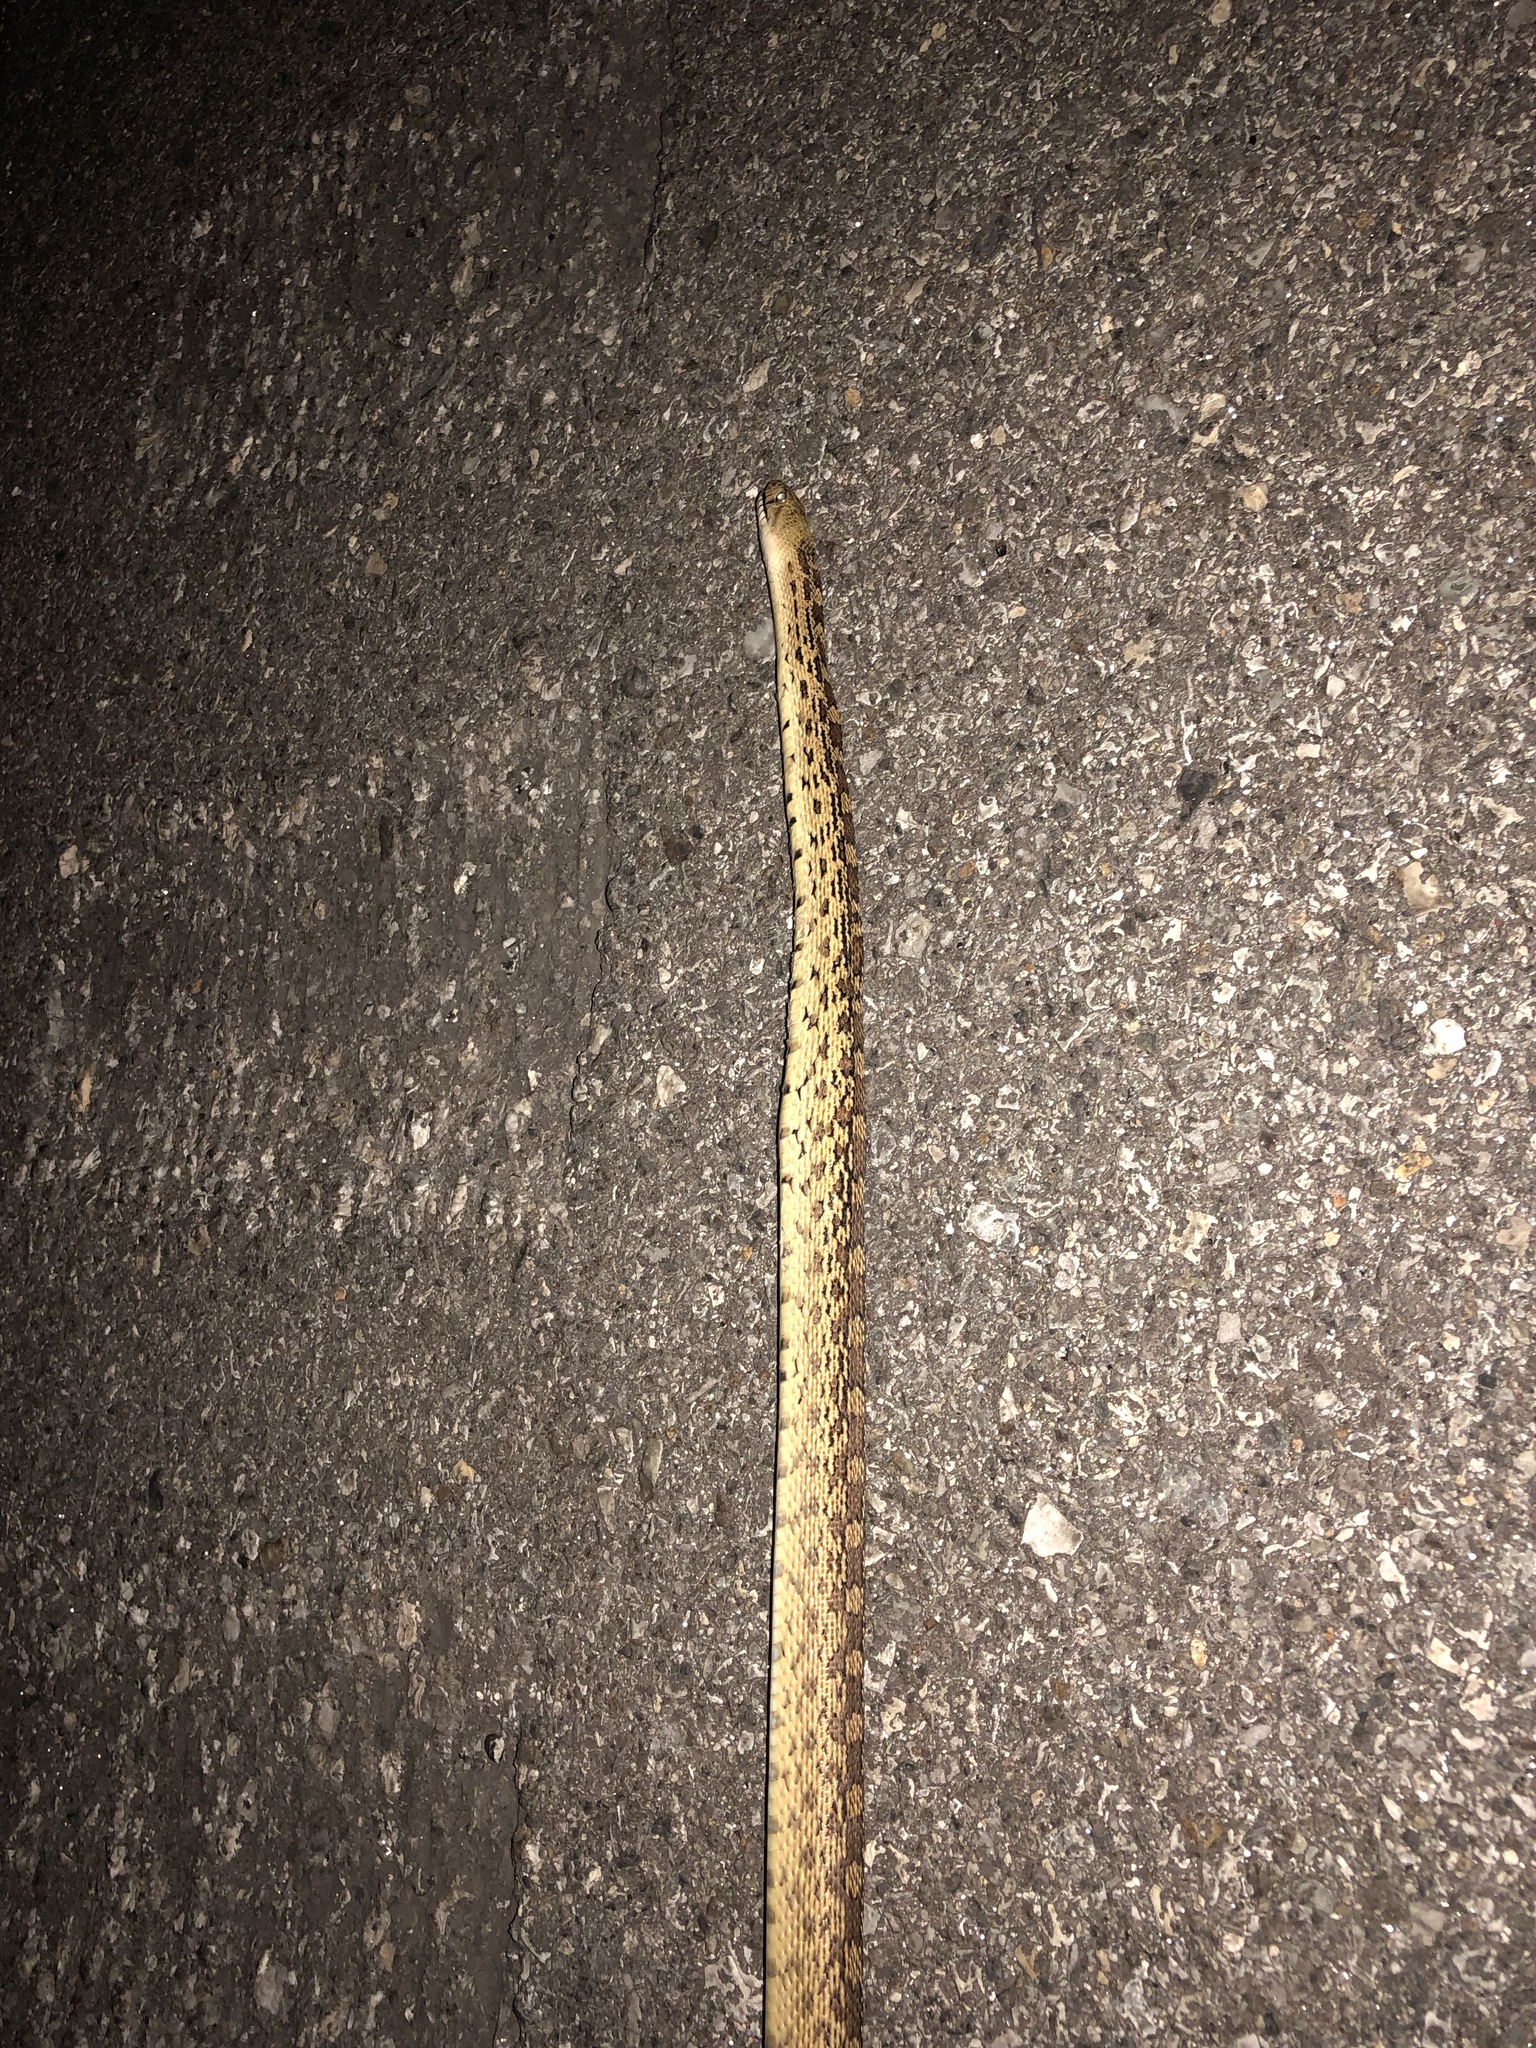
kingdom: Animalia
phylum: Chordata
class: Squamata
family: Colubridae
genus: Pituophis
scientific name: Pituophis catenifer
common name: Gopher snake
